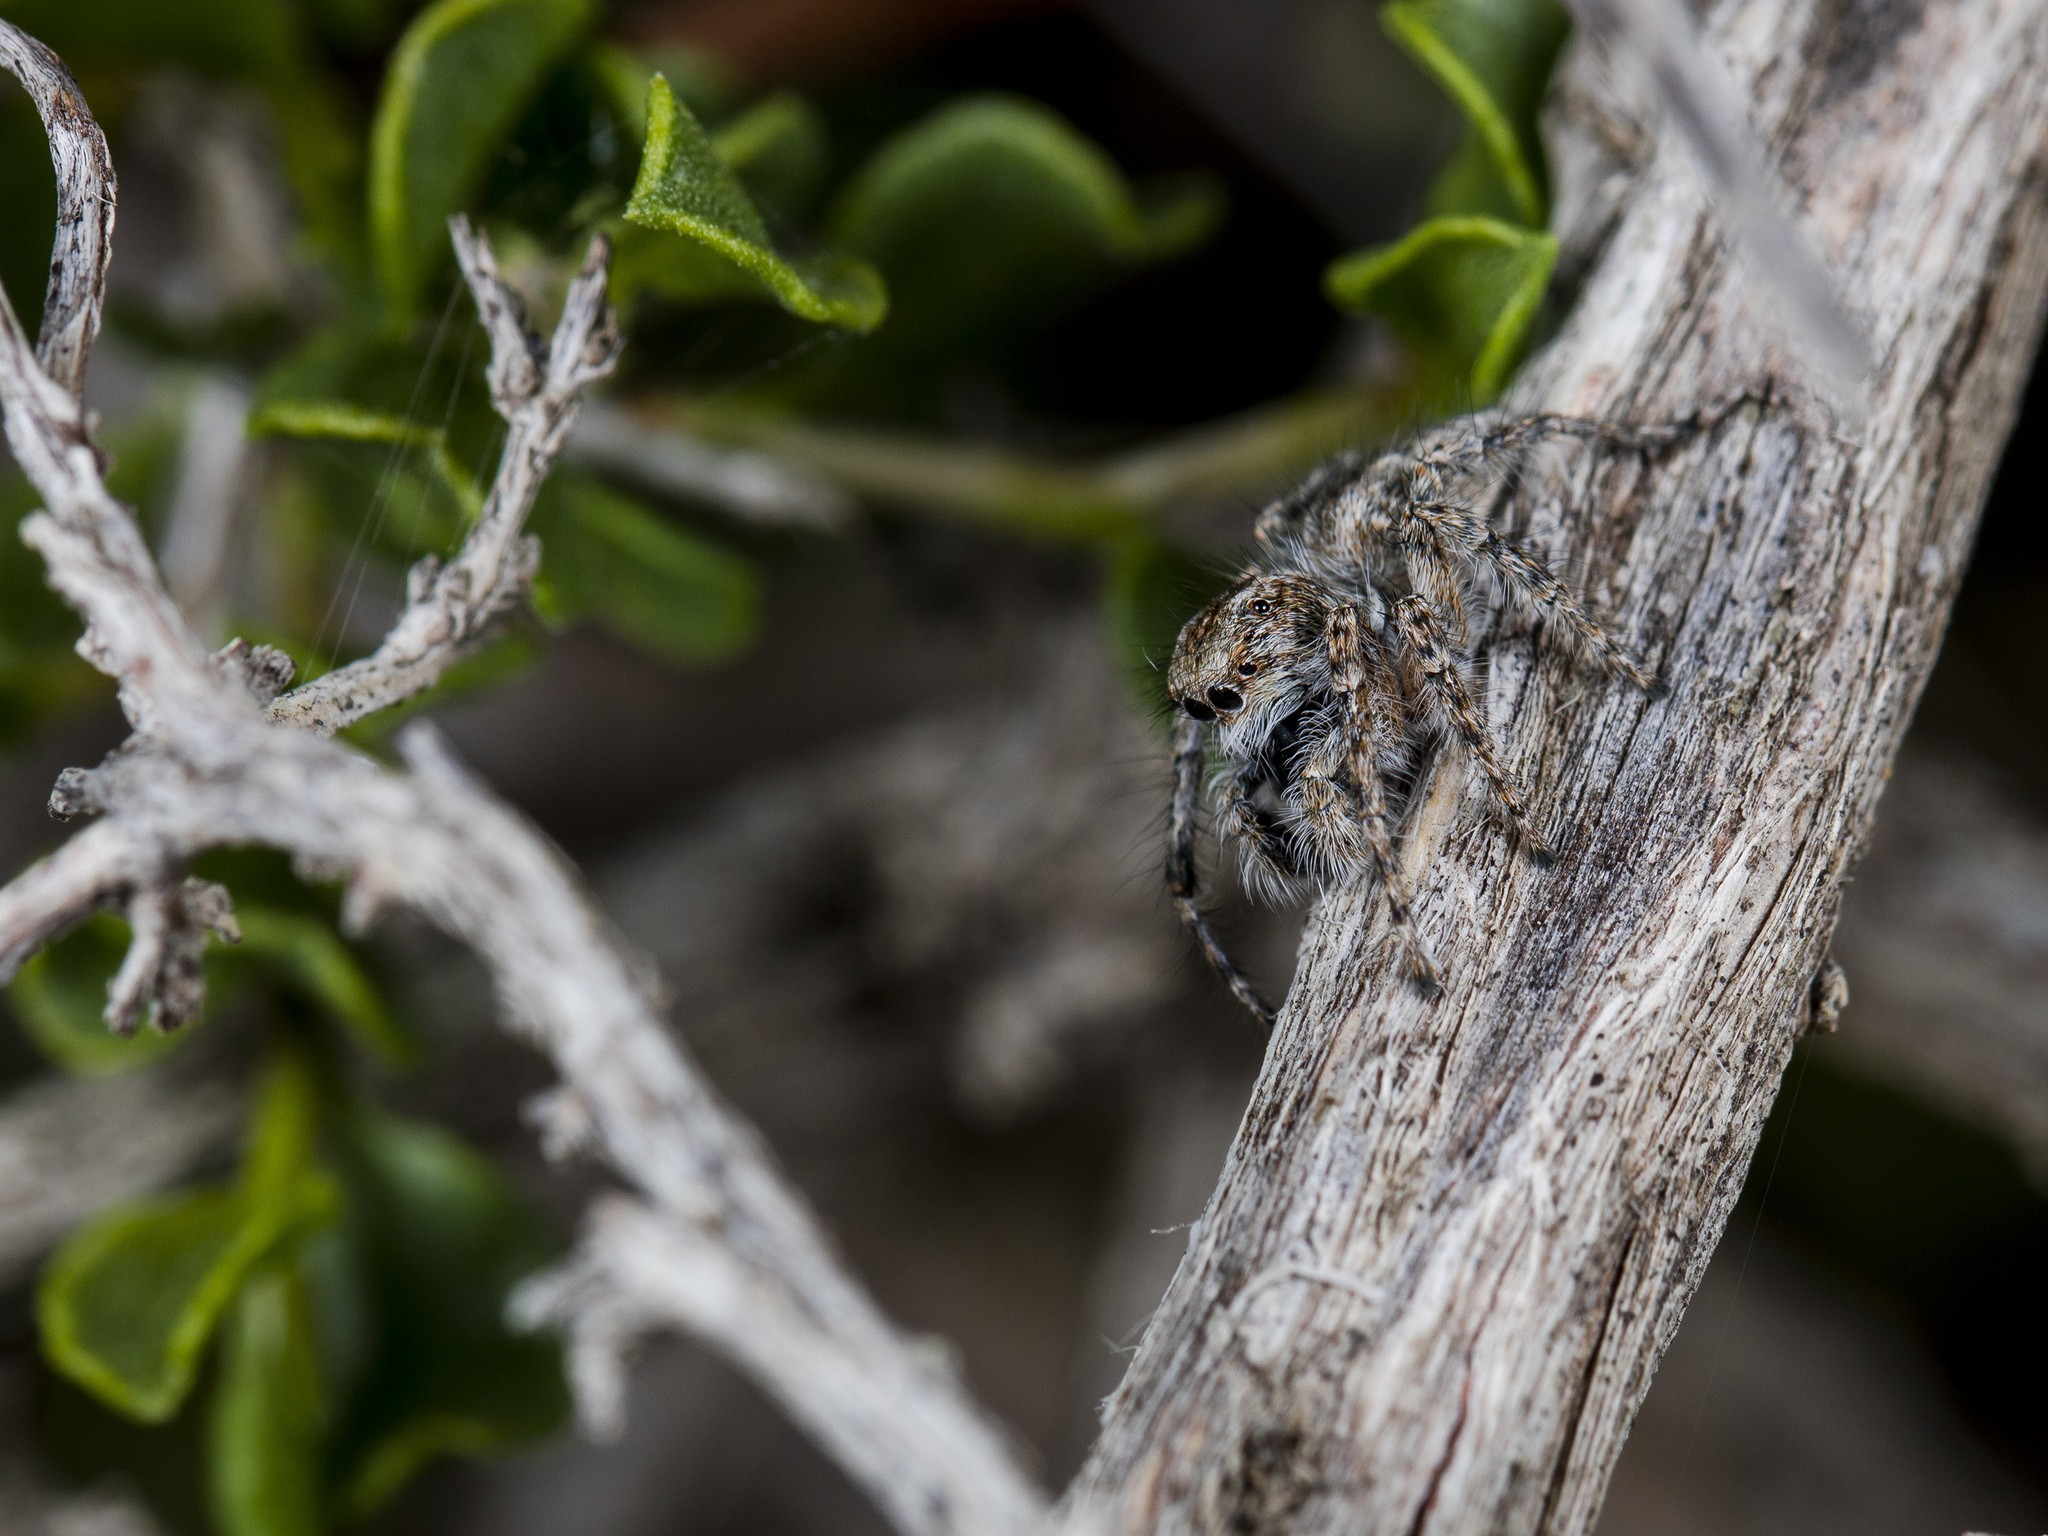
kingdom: Animalia
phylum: Arthropoda
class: Arachnida
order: Araneae
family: Salticidae
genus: Mogrus
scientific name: Mogrus larisae
